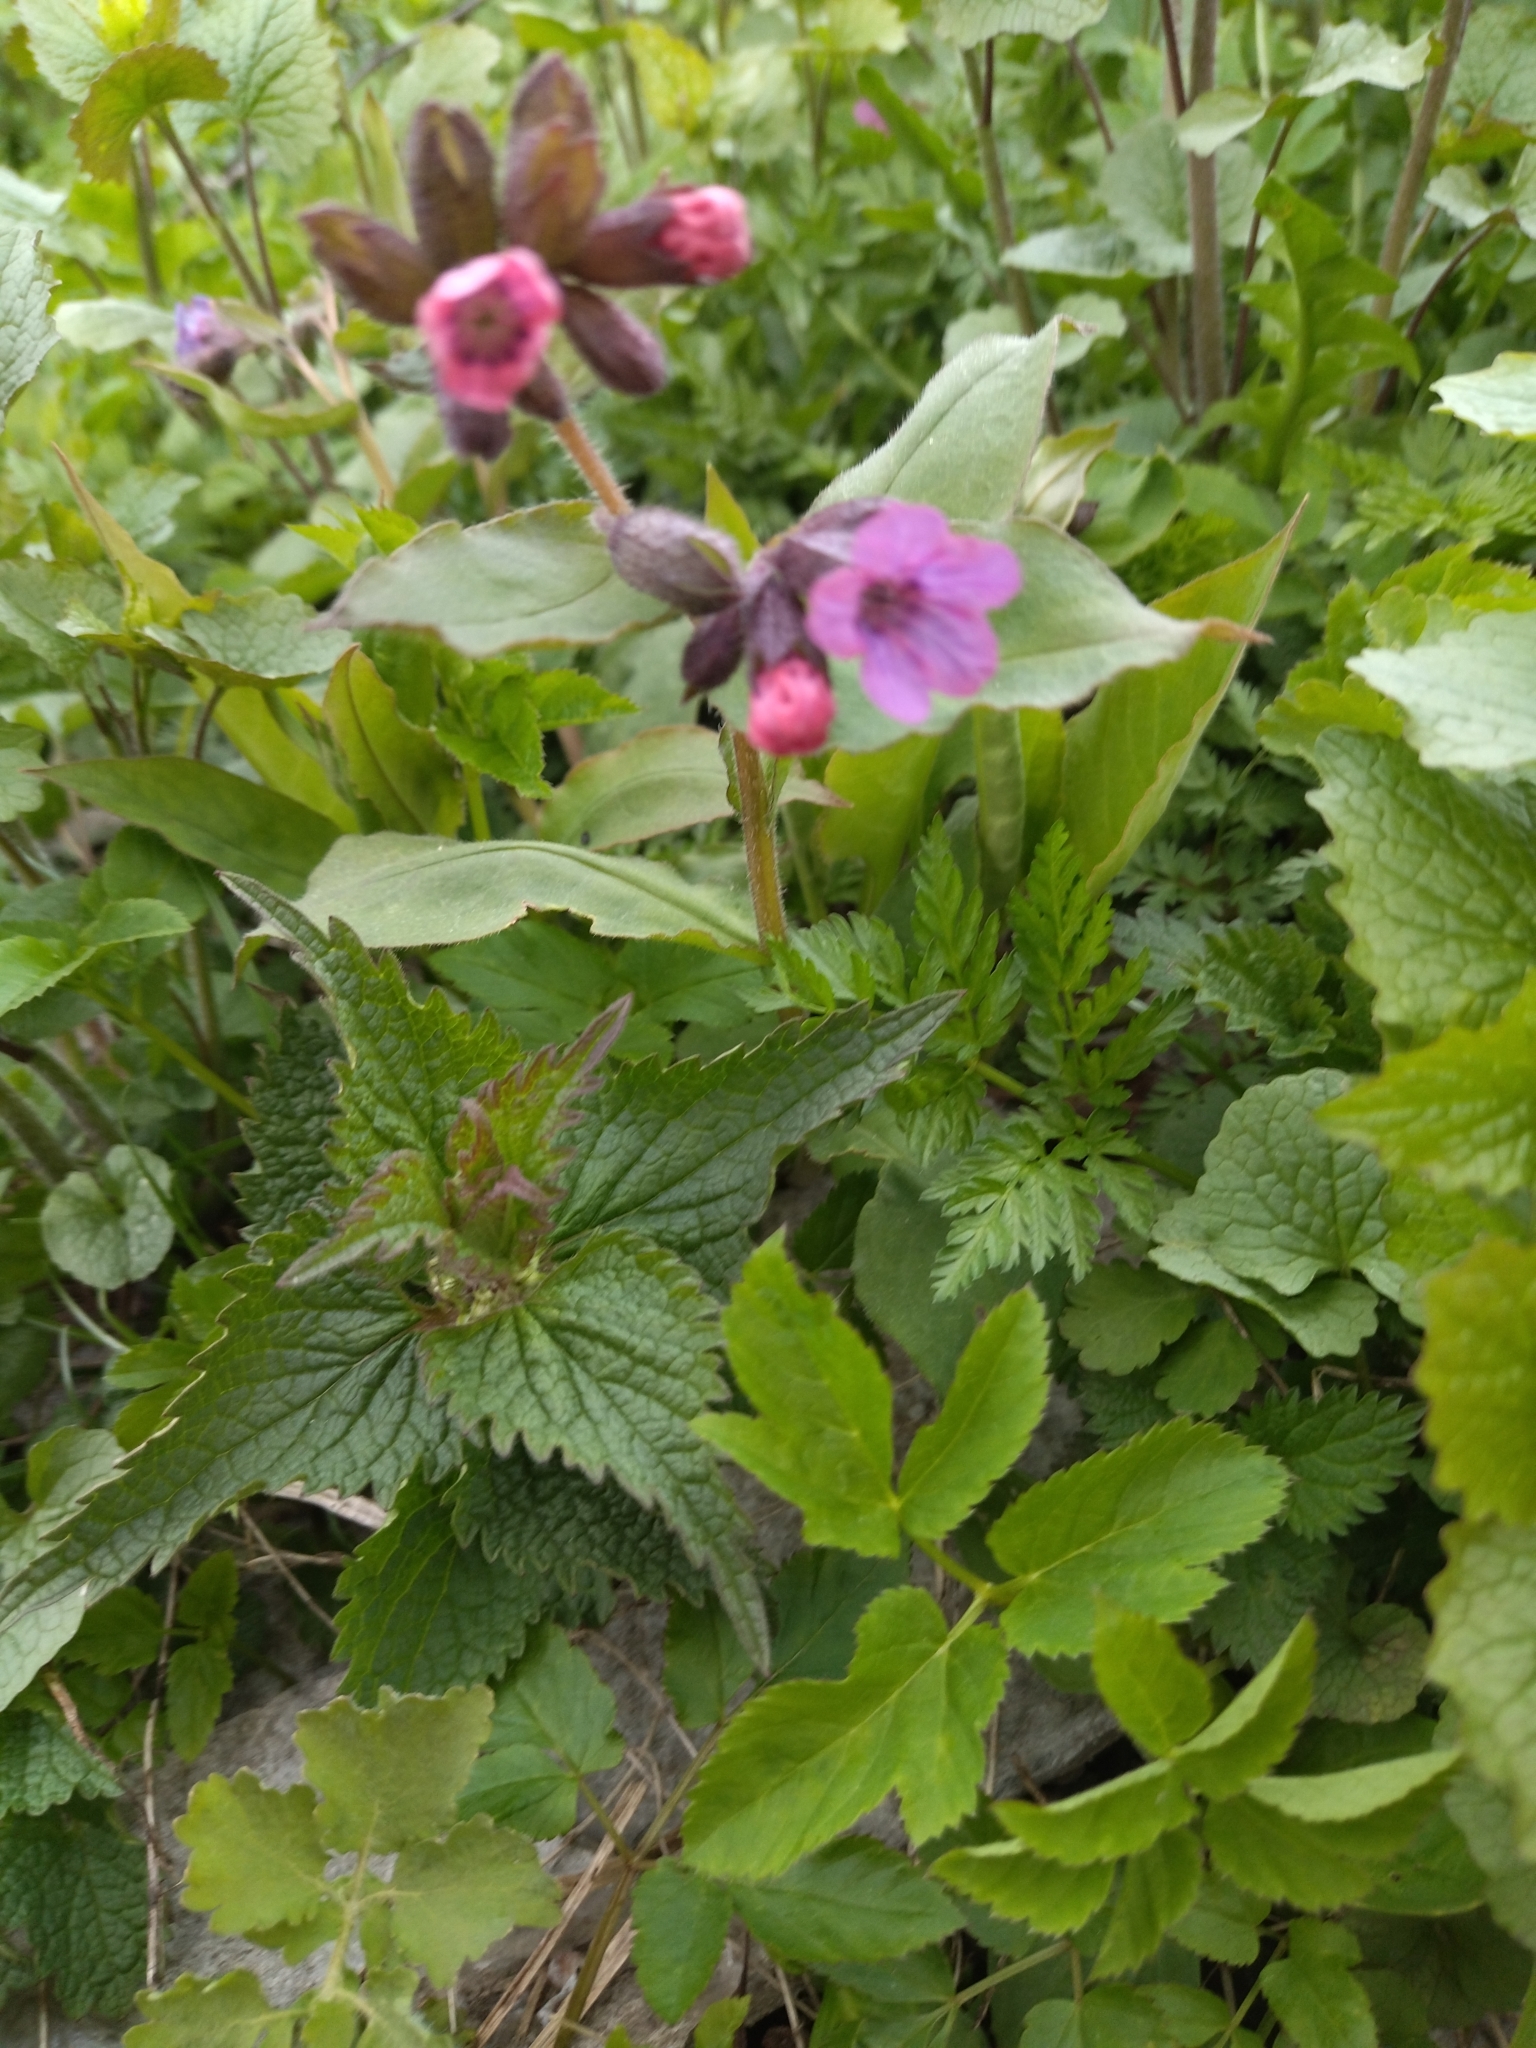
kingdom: Plantae
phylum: Tracheophyta
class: Magnoliopsida
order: Boraginales
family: Boraginaceae
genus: Pulmonaria
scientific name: Pulmonaria obscura
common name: Suffolk lungwort
